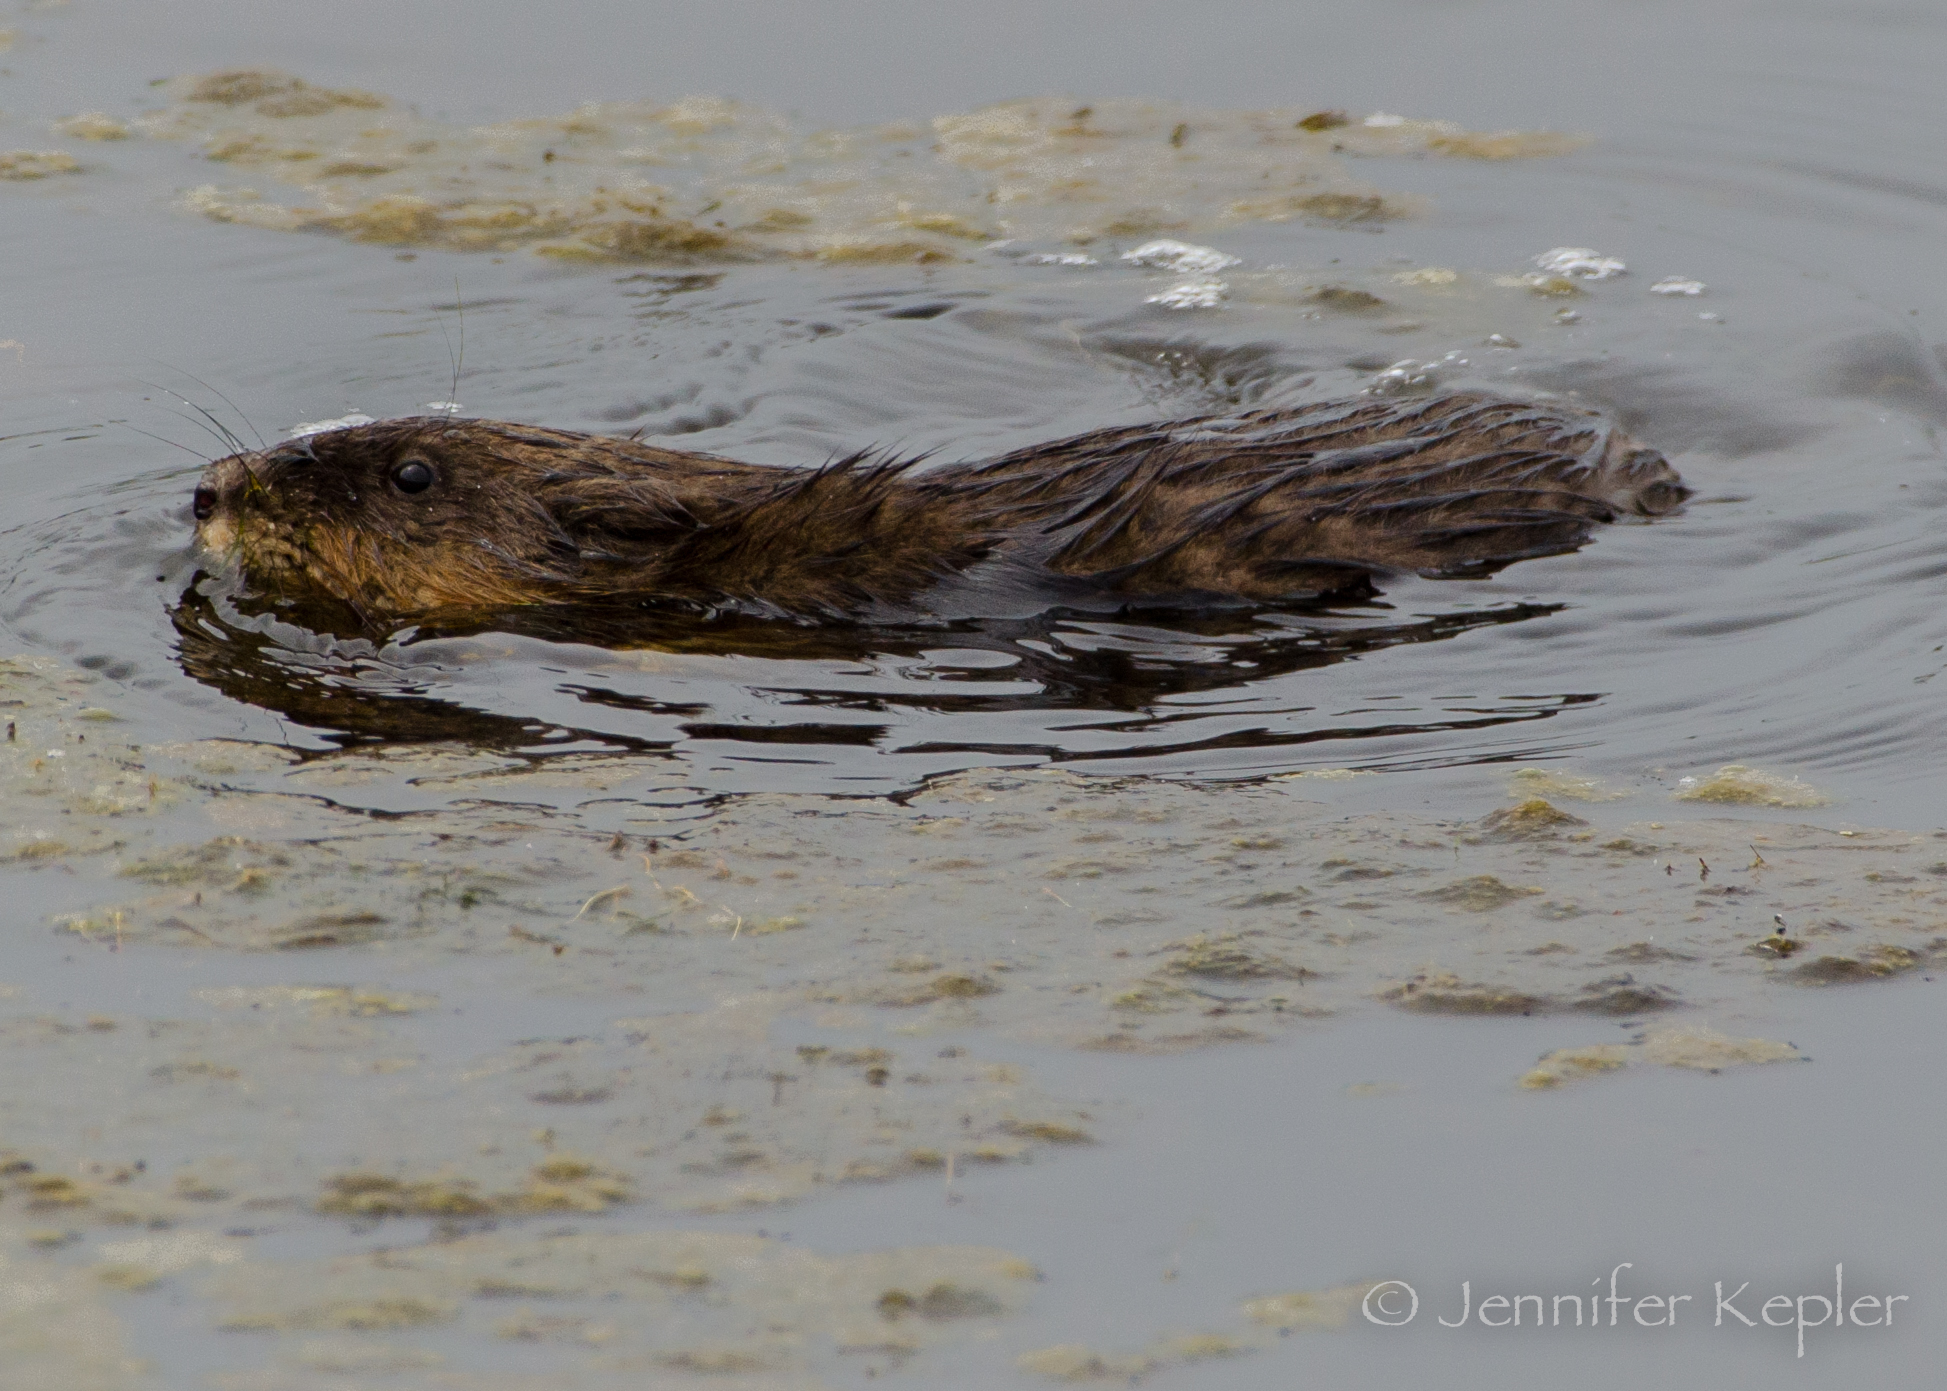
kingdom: Animalia
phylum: Chordata
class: Mammalia
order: Rodentia
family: Cricetidae
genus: Ondatra
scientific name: Ondatra zibethicus
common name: Muskrat
